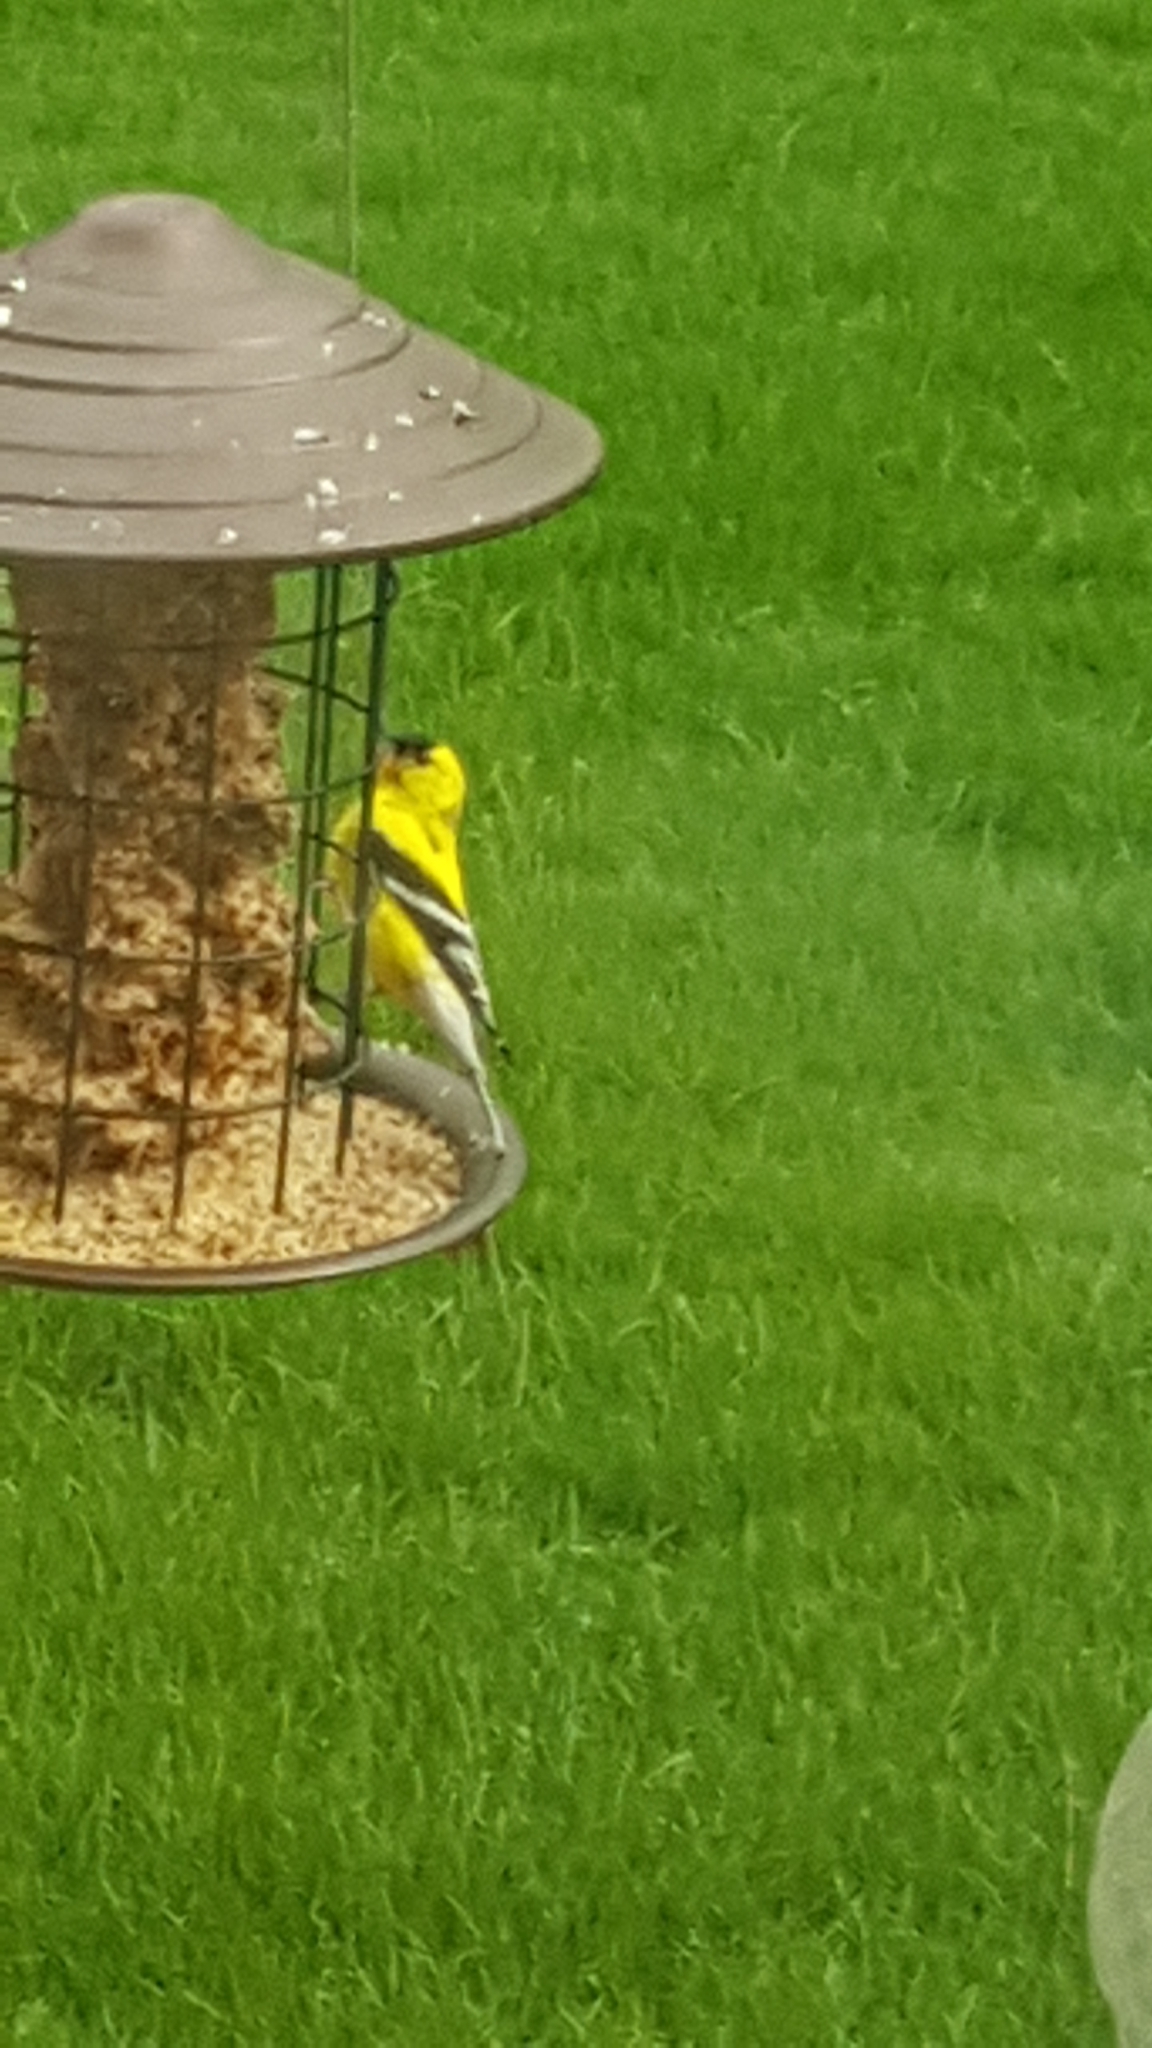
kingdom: Animalia
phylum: Chordata
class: Aves
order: Passeriformes
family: Fringillidae
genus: Spinus
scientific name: Spinus tristis
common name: American goldfinch
